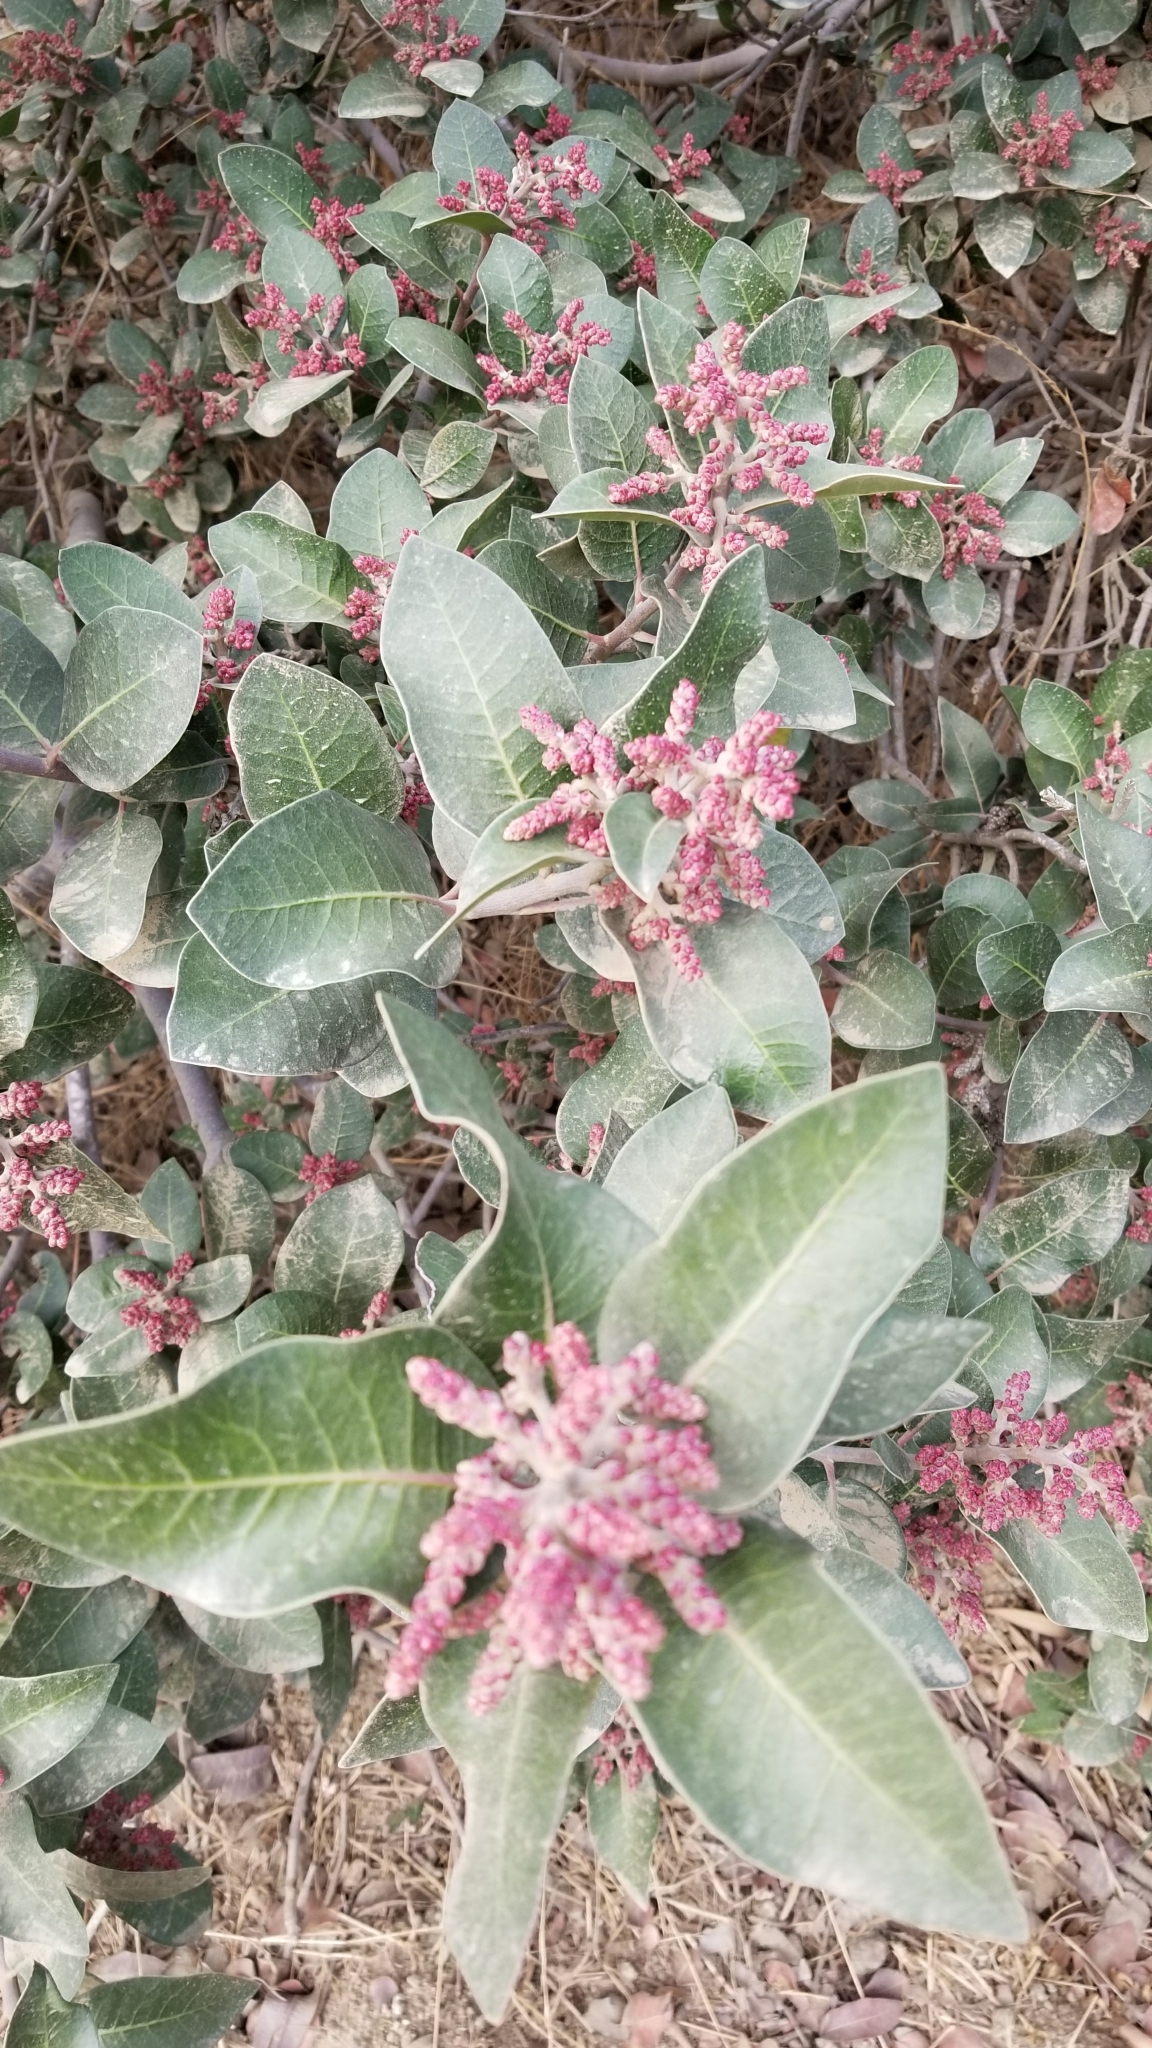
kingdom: Plantae
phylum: Tracheophyta
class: Magnoliopsida
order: Sapindales
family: Anacardiaceae
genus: Rhus
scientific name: Rhus ovata
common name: Sugar sumac
